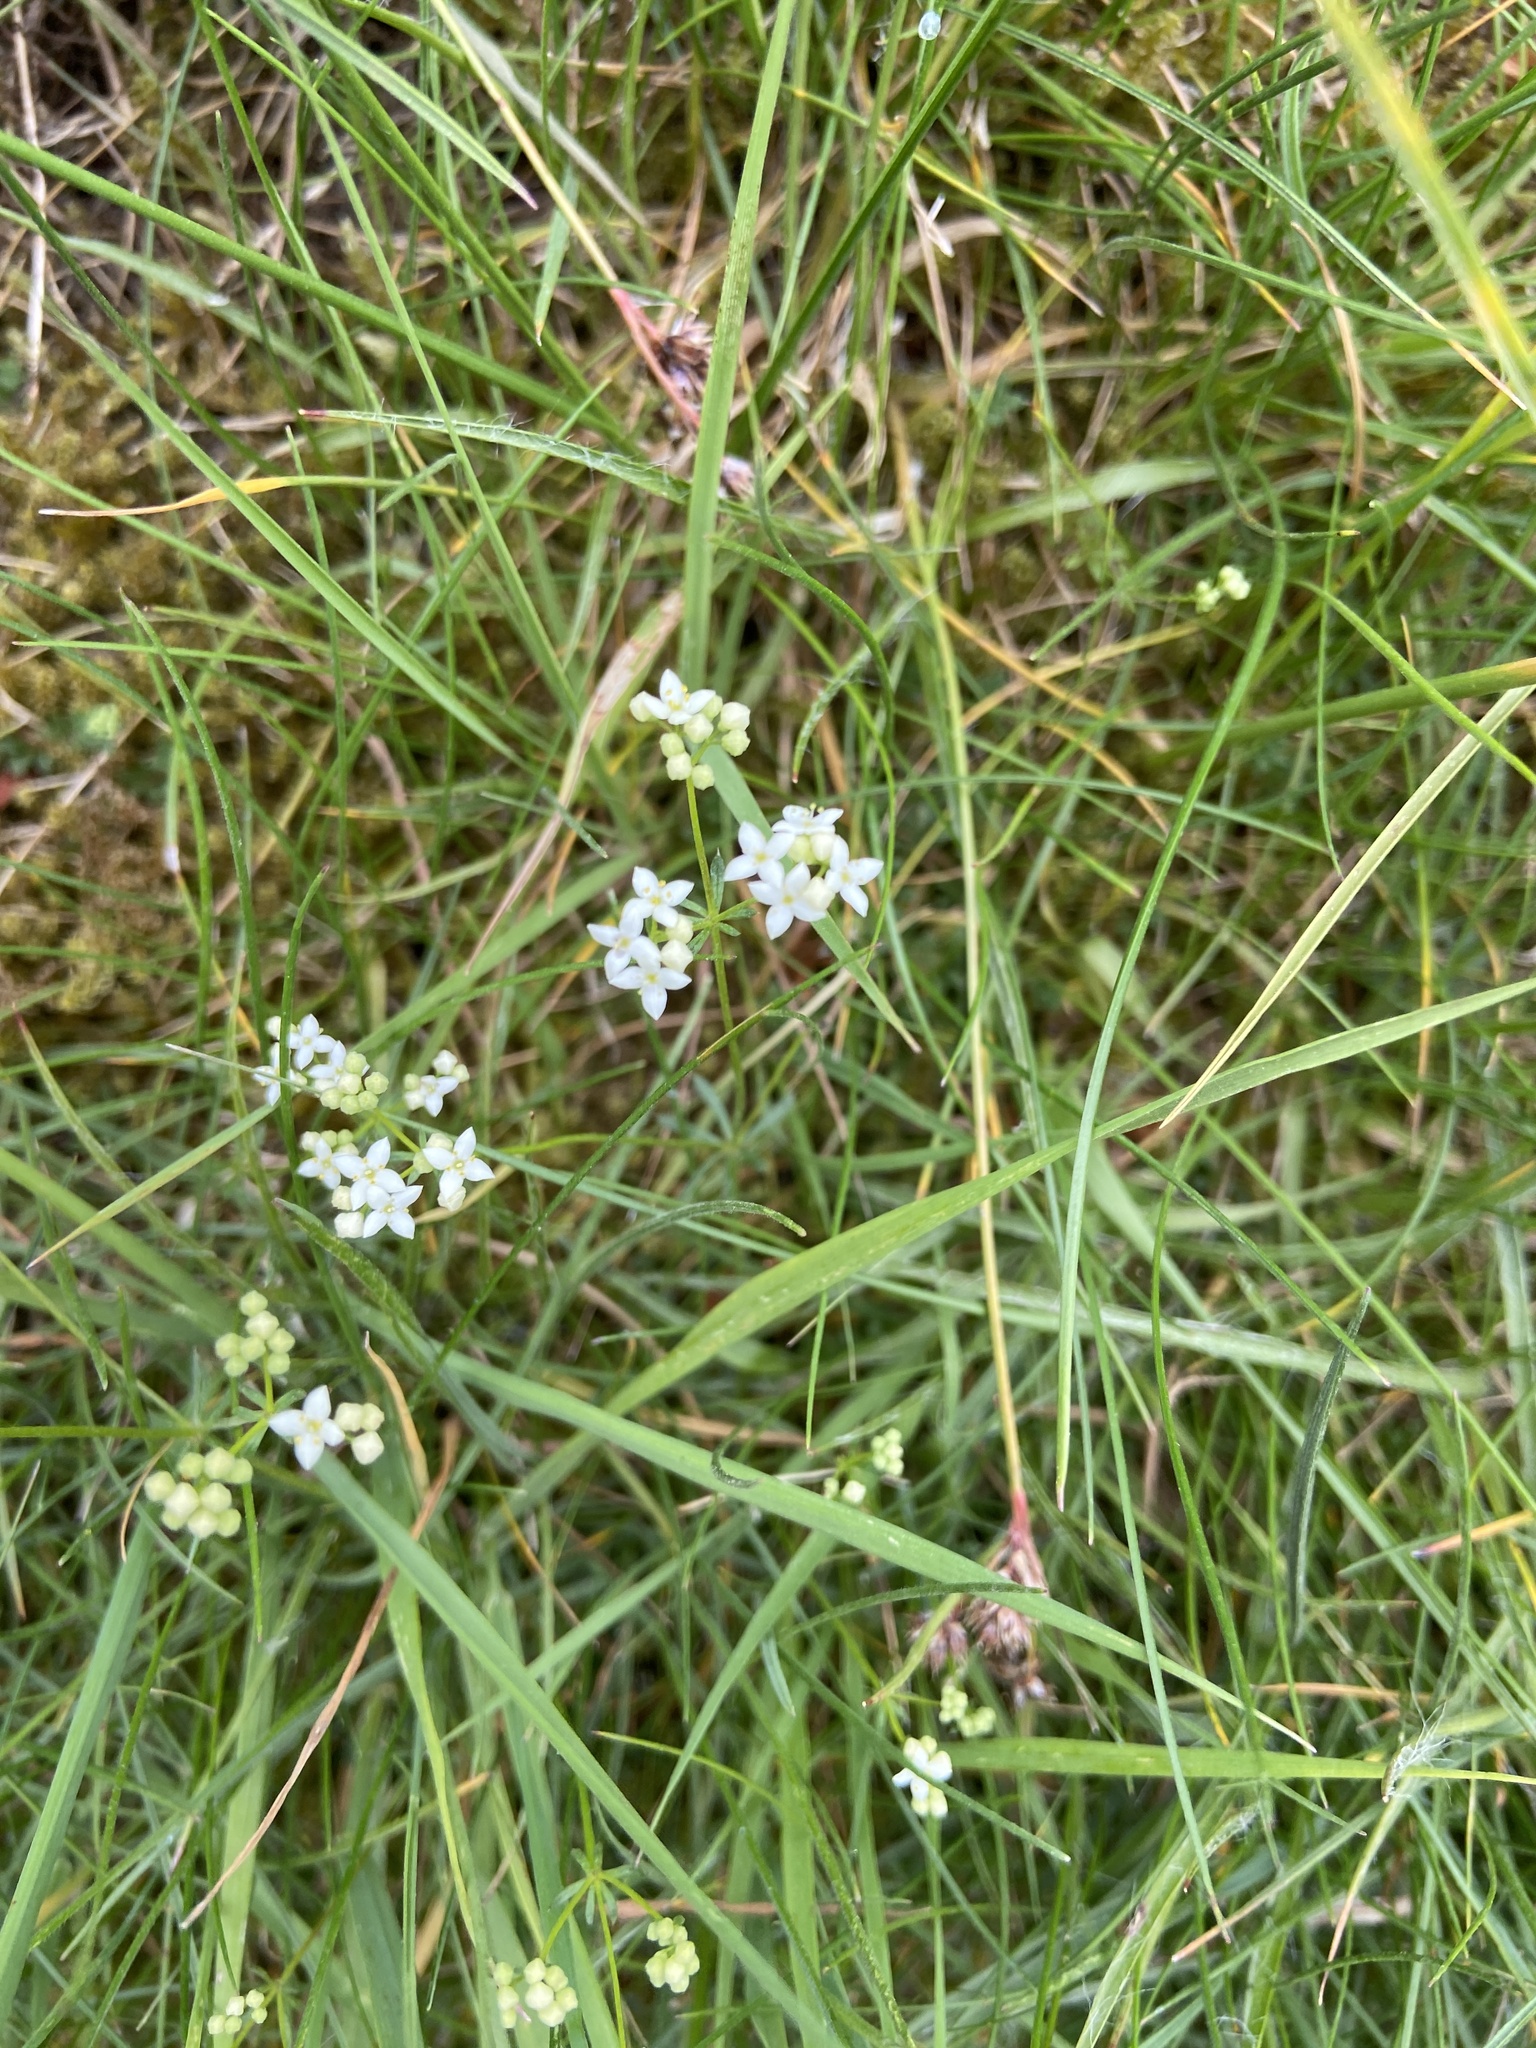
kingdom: Plantae
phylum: Tracheophyta
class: Magnoliopsida
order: Gentianales
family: Rubiaceae
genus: Galium
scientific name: Galium saxatile
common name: Heath bedstraw
